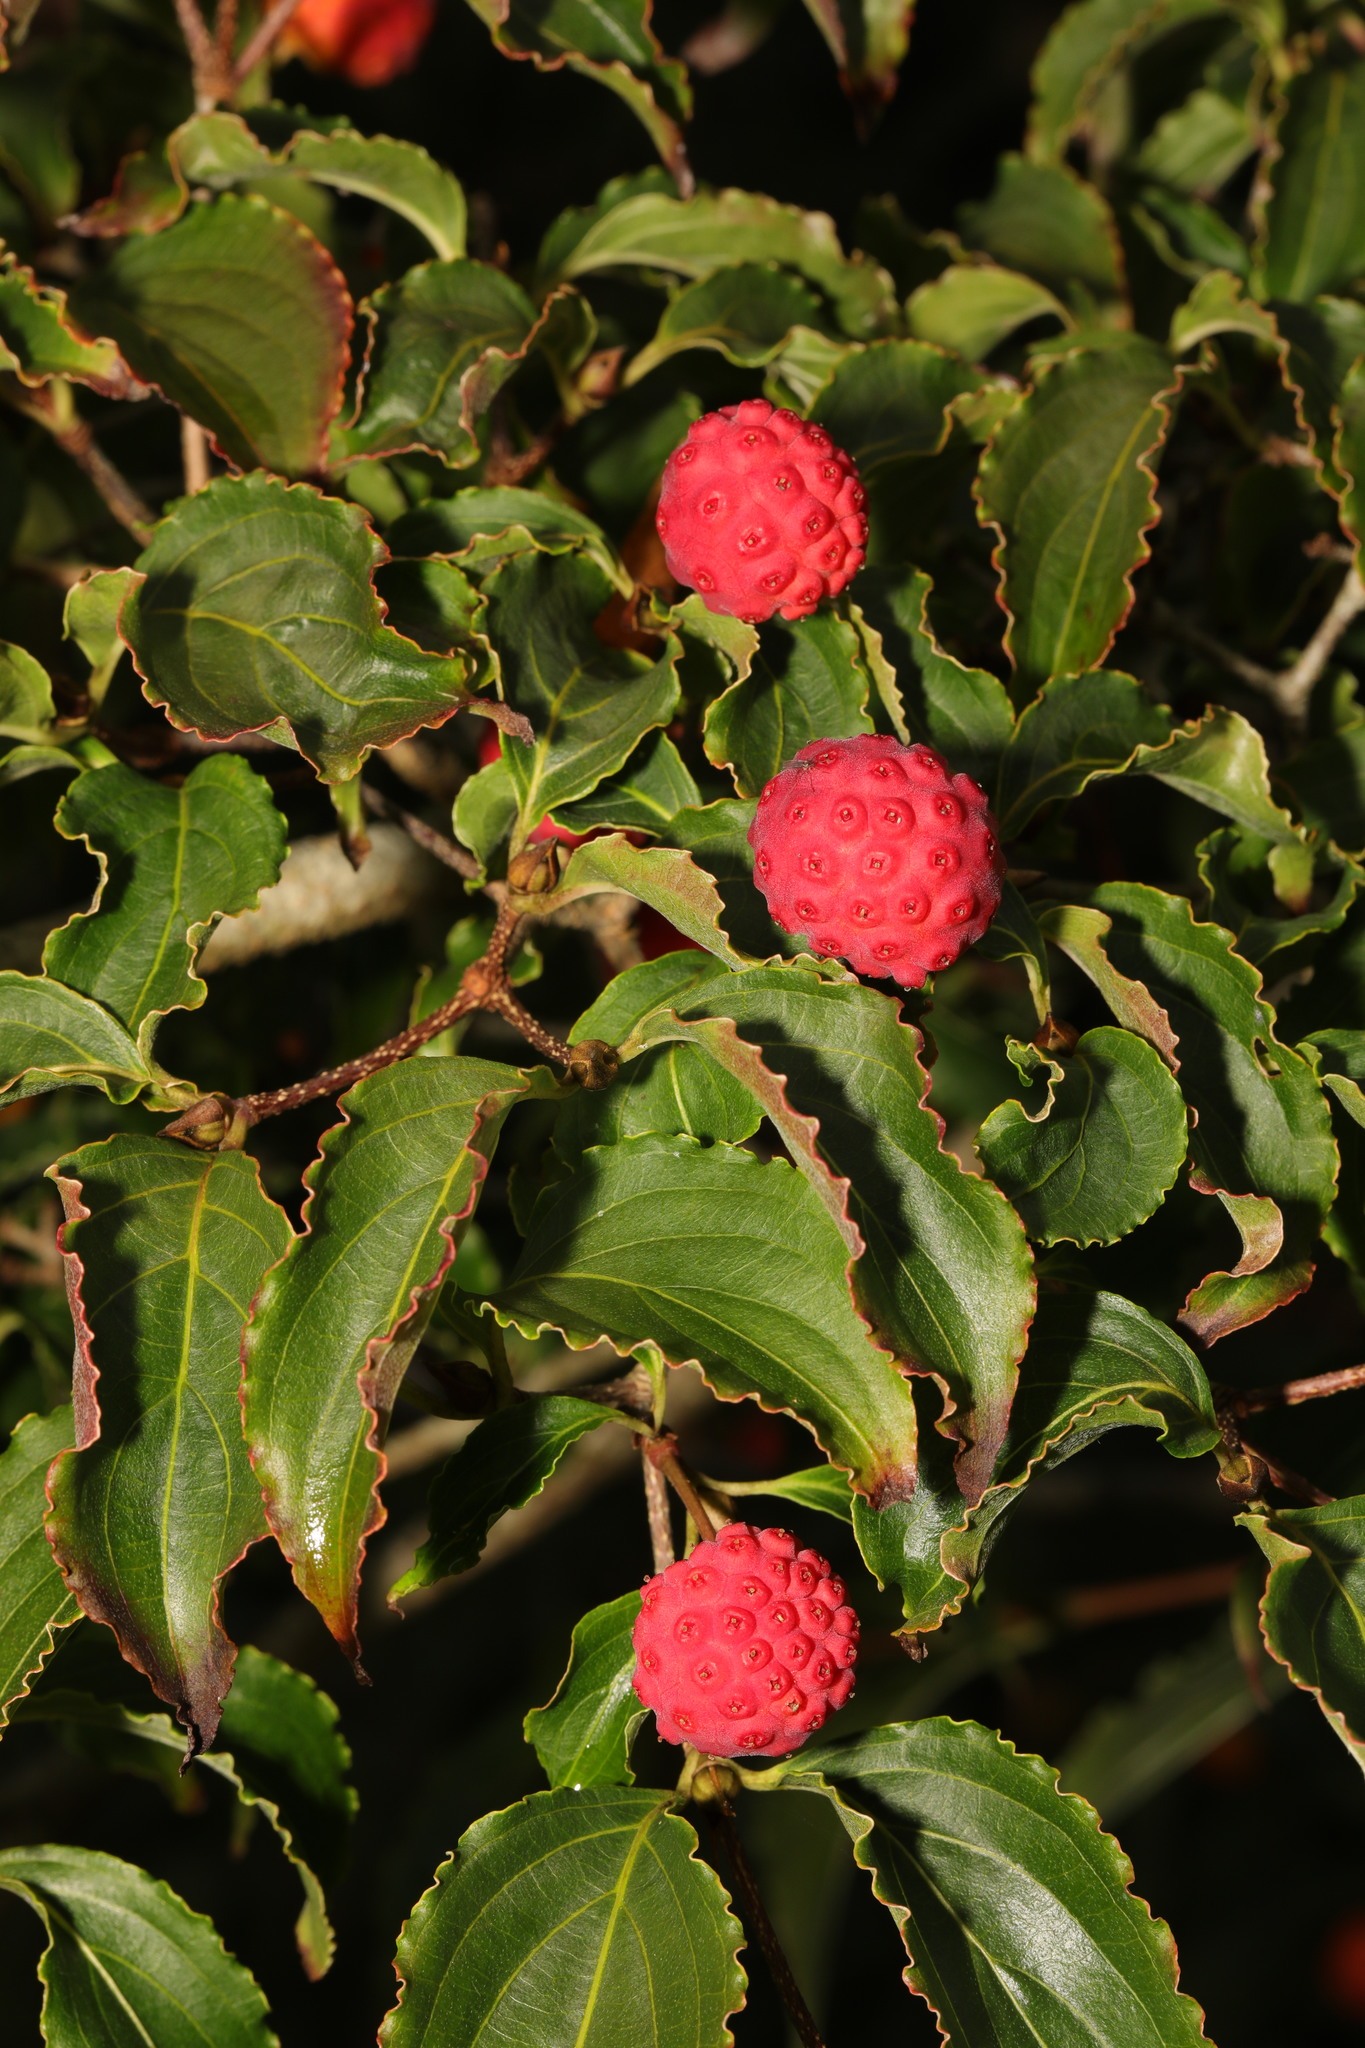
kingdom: Plantae
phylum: Tracheophyta
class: Magnoliopsida
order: Cornales
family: Cornaceae
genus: Cornus
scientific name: Cornus kousa
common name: Japanese dogwood
